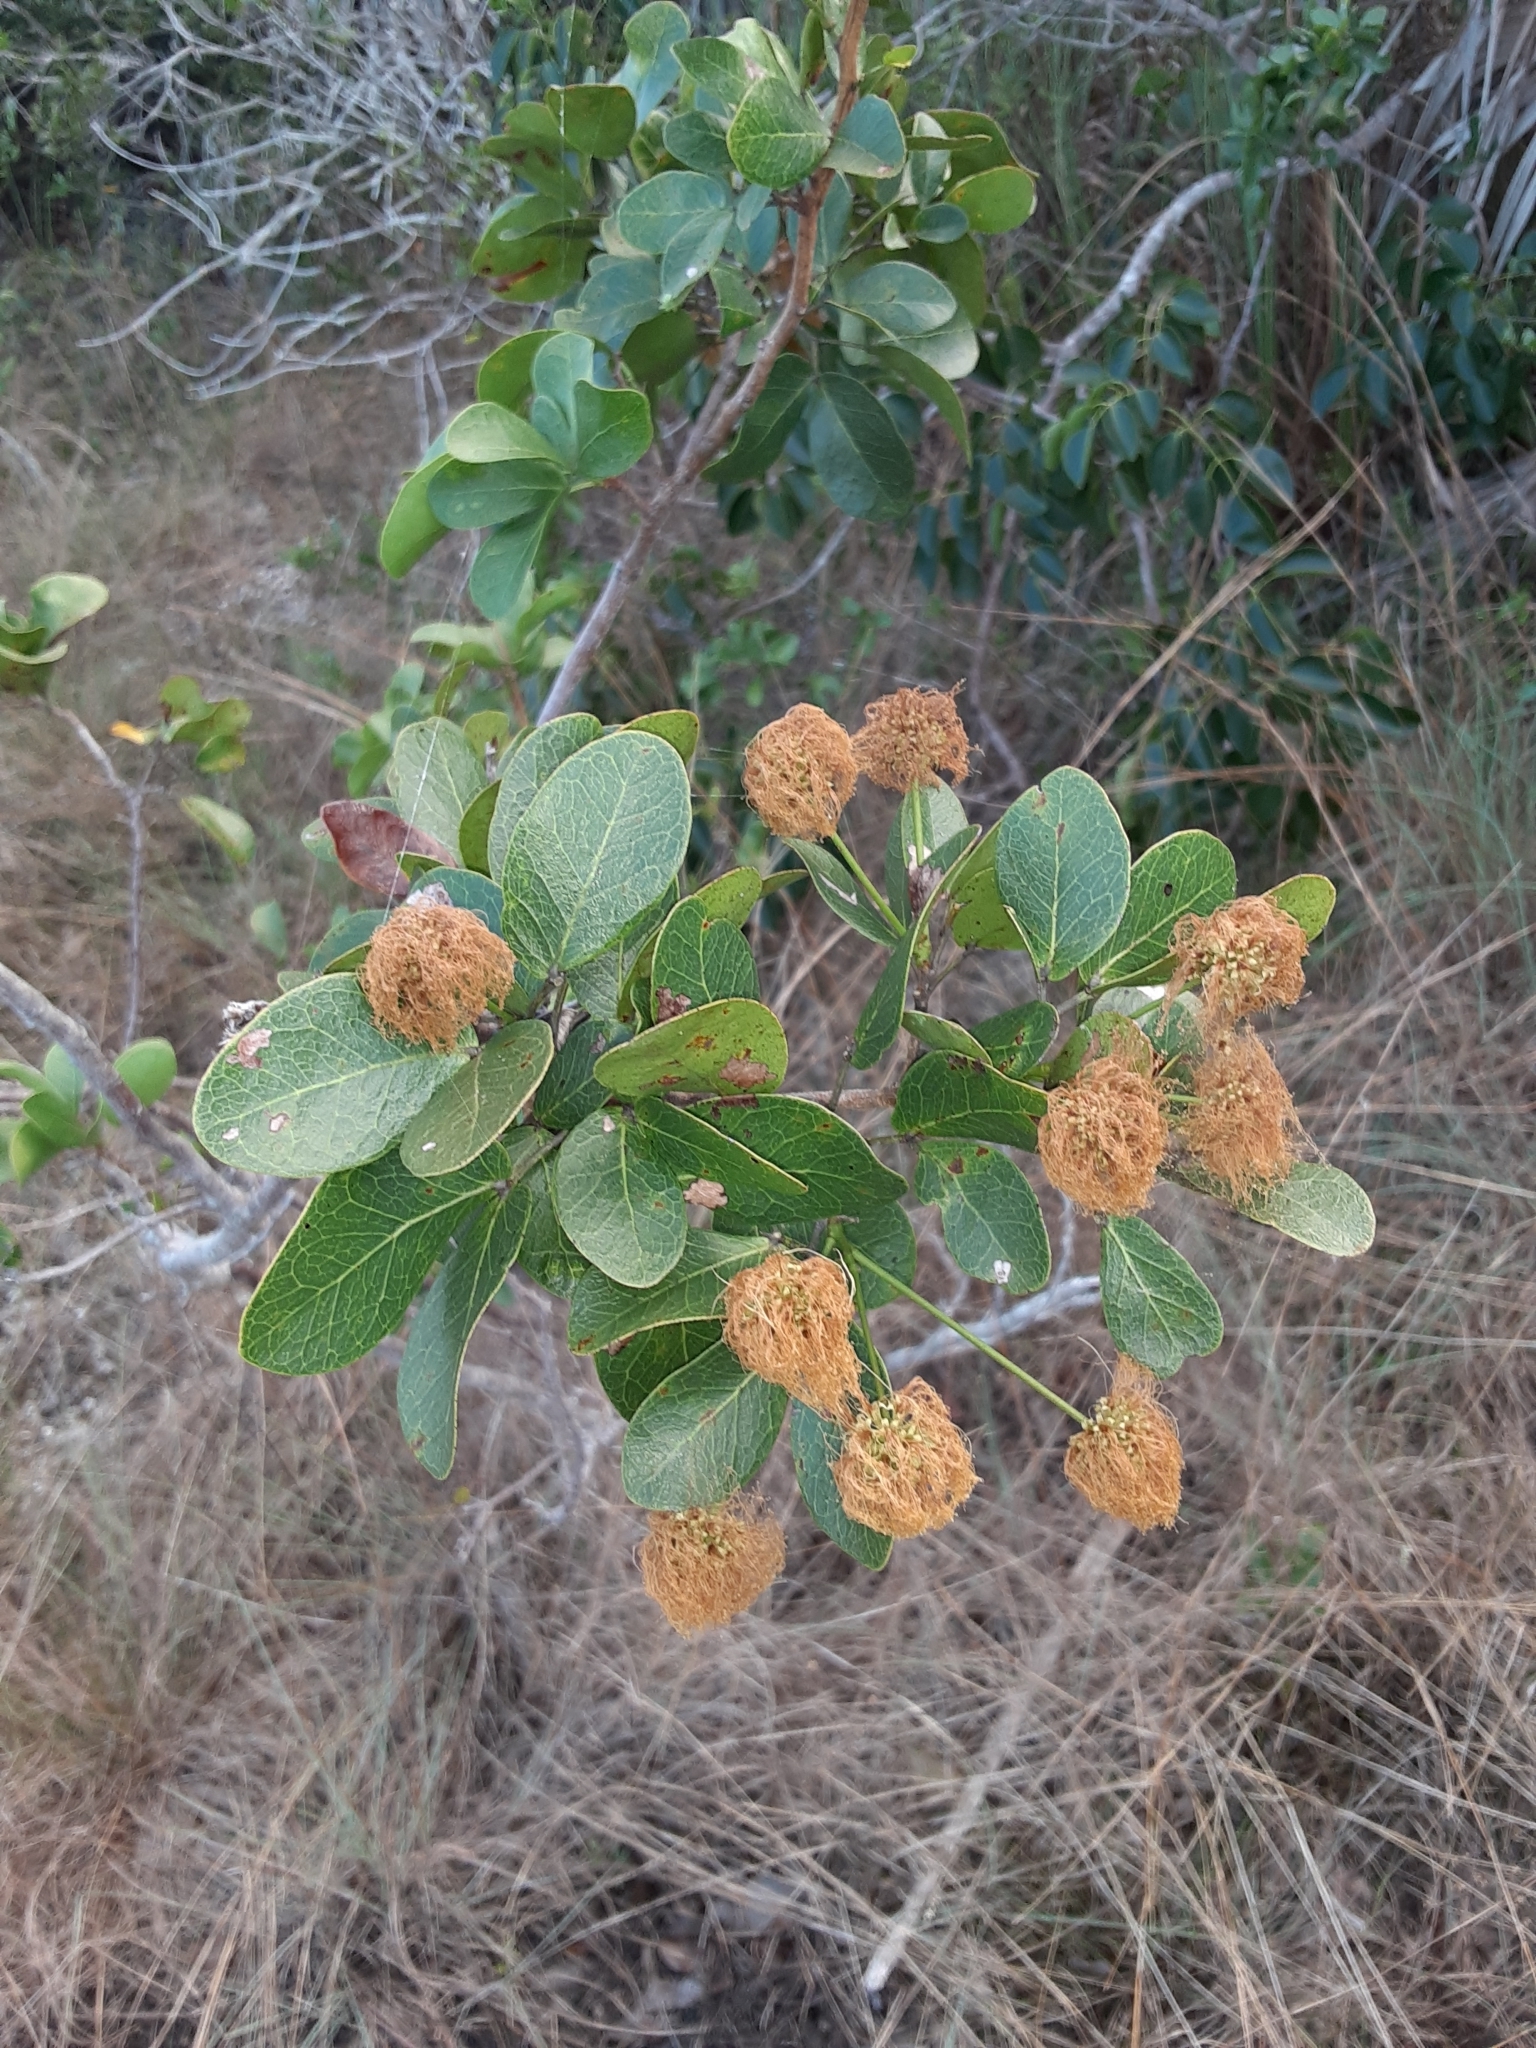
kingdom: Plantae
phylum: Tracheophyta
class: Magnoliopsida
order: Fabales
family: Fabaceae
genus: Pithecellobium
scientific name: Pithecellobium keyense
